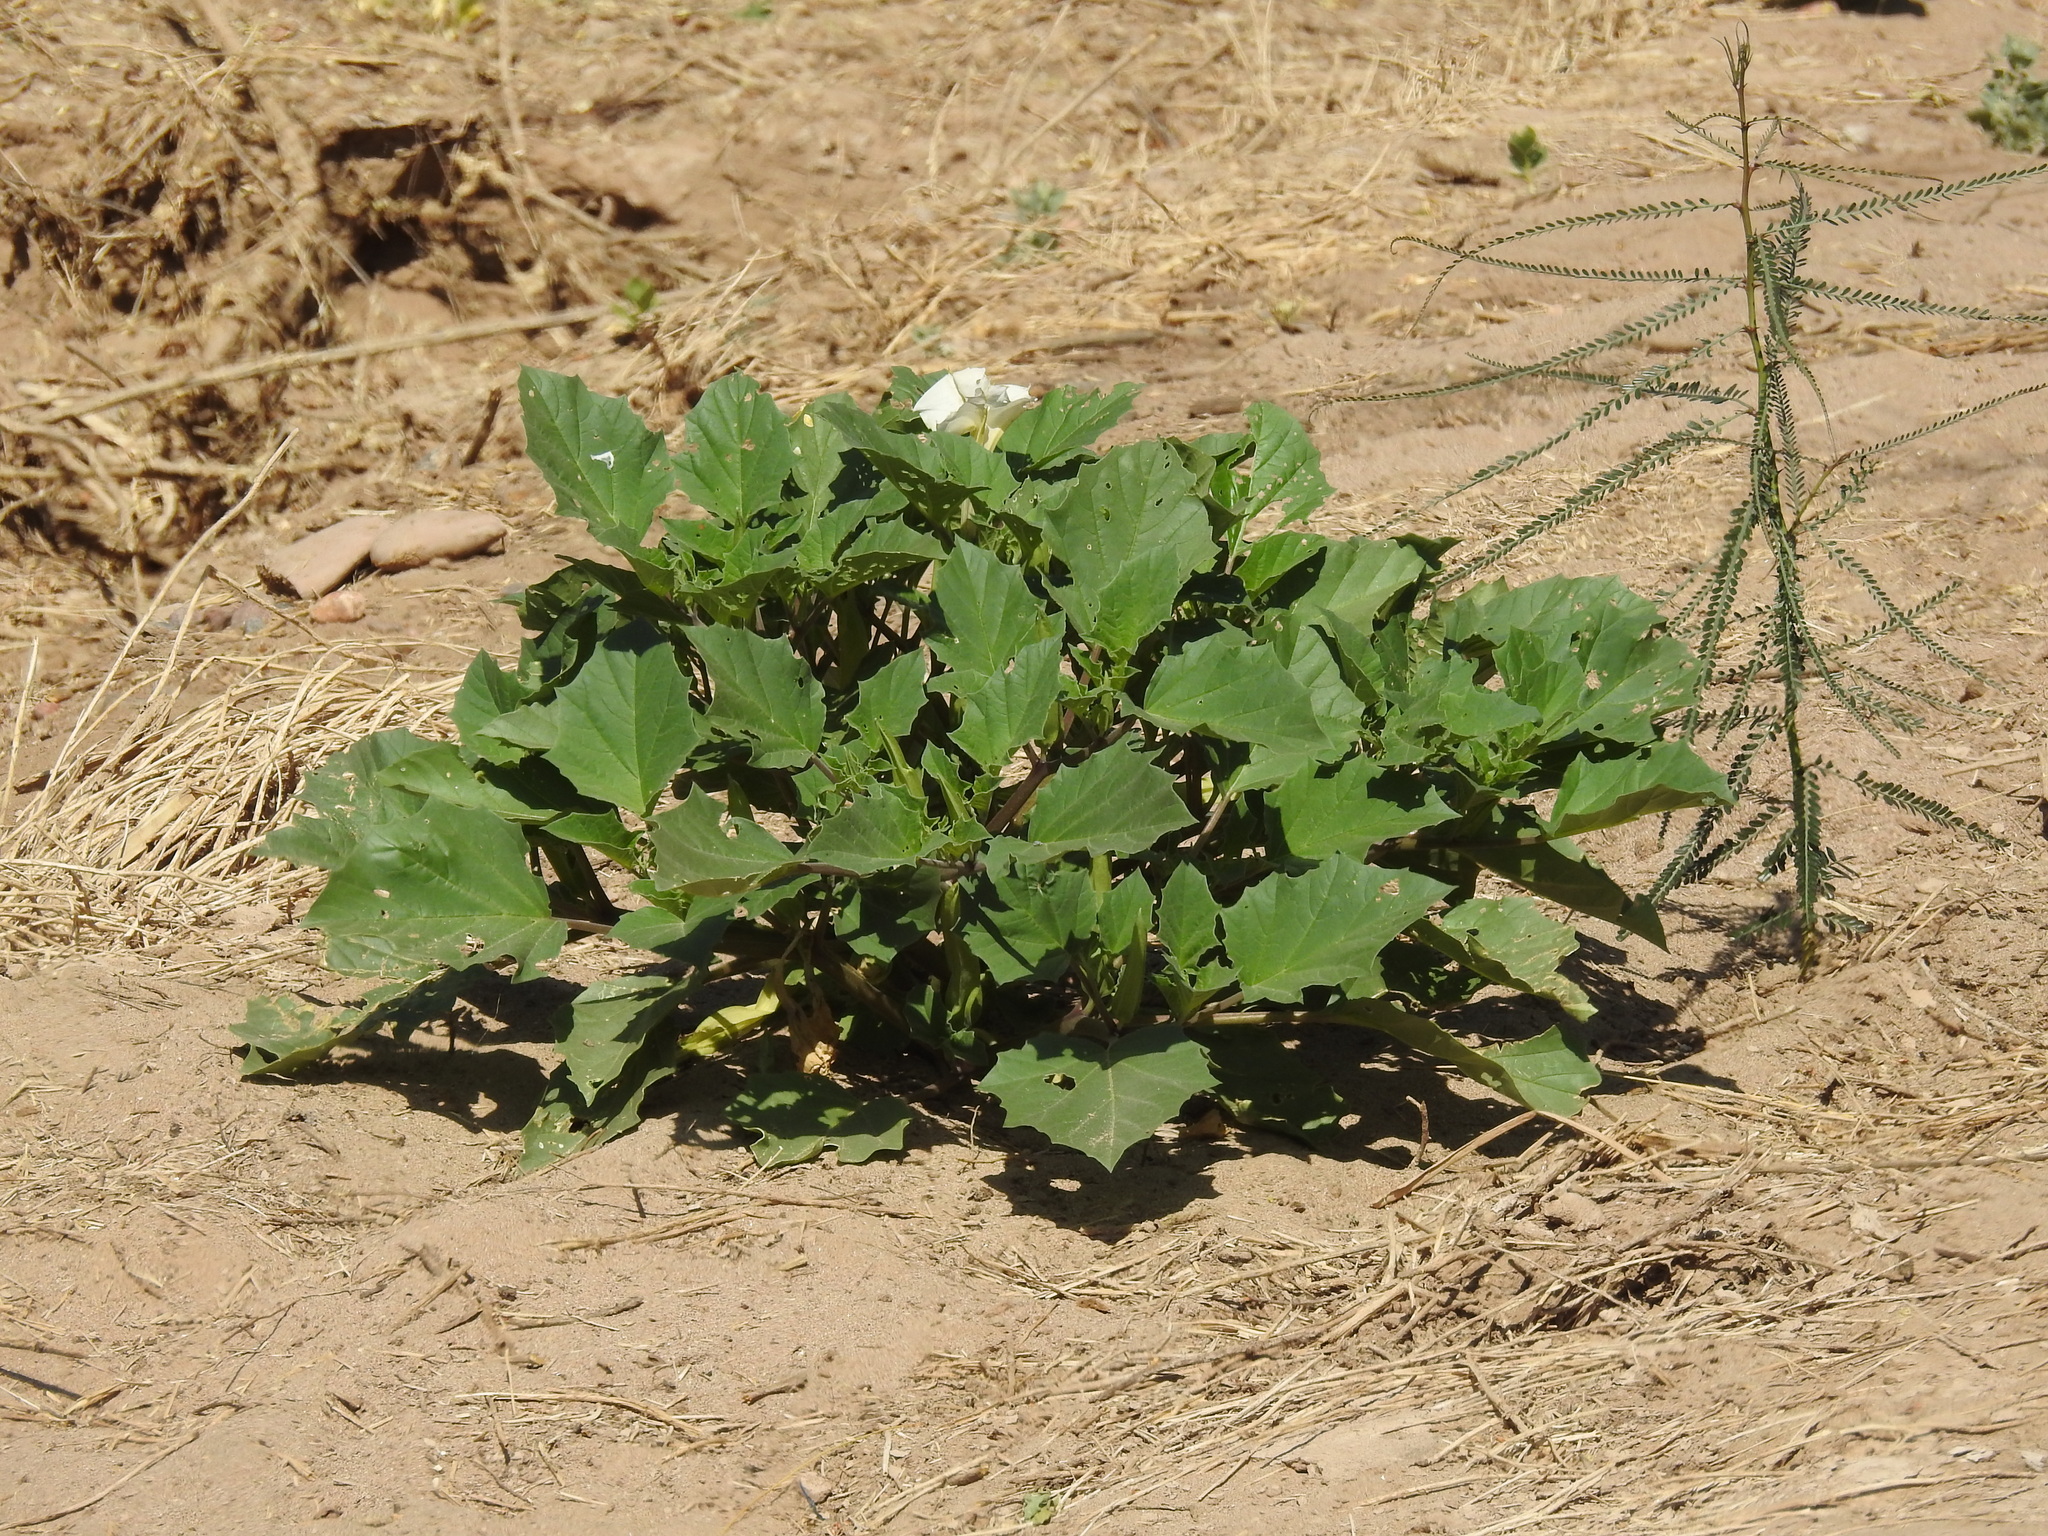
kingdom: Plantae
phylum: Tracheophyta
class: Magnoliopsida
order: Solanales
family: Solanaceae
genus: Datura
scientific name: Datura discolor
